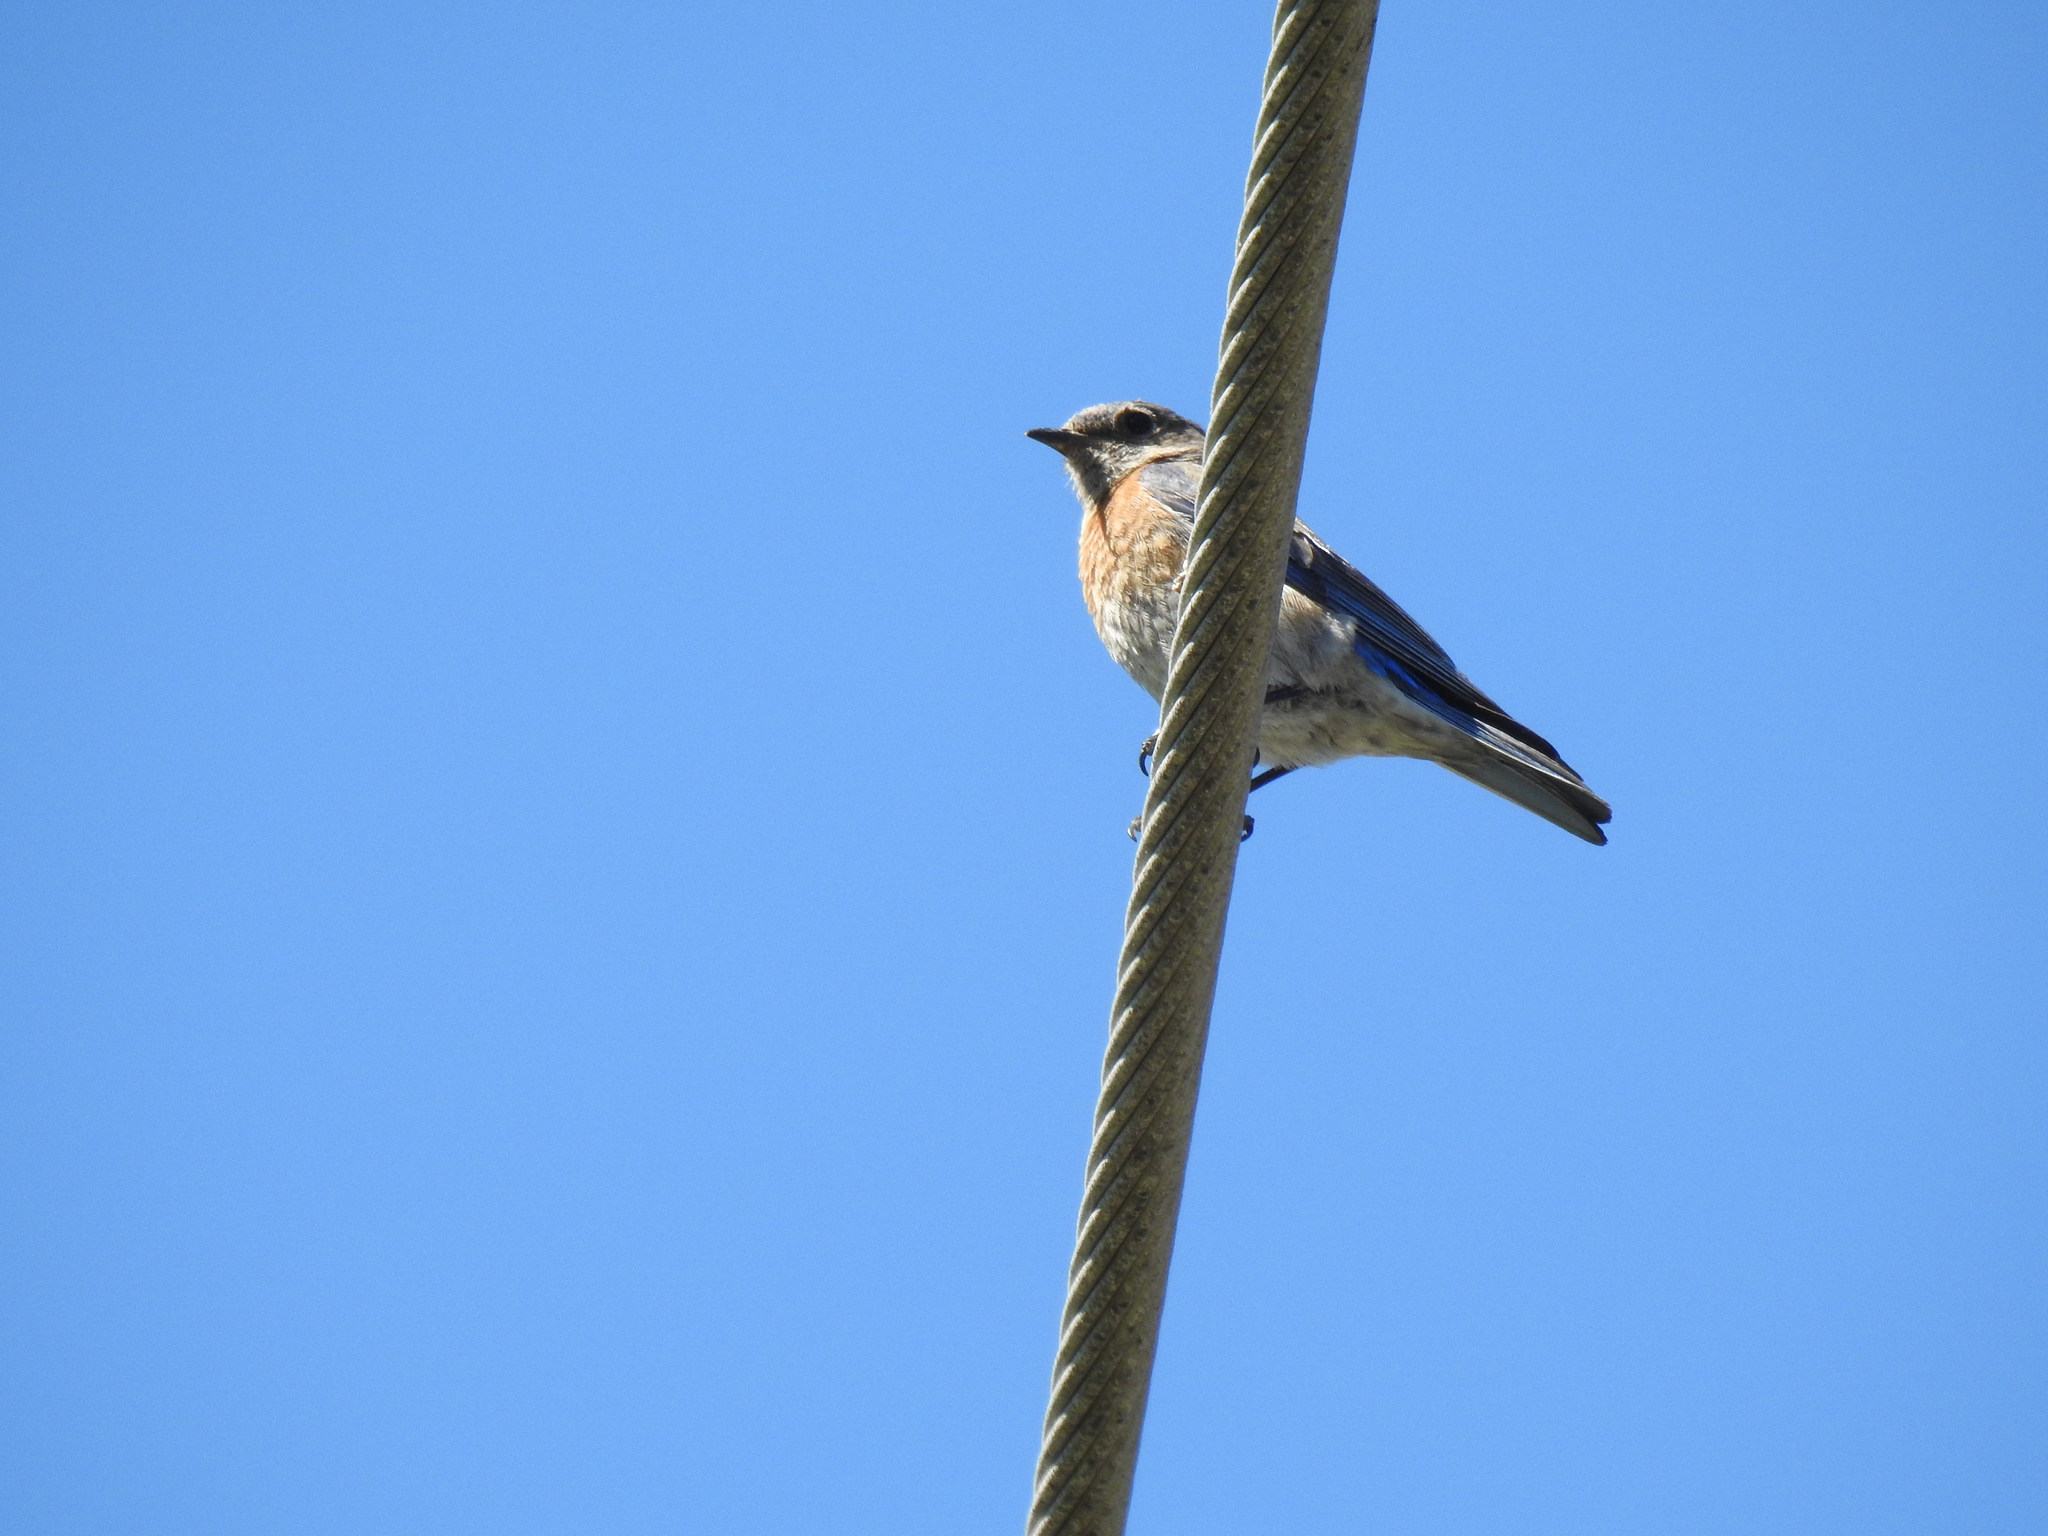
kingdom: Animalia
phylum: Chordata
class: Aves
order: Passeriformes
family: Turdidae
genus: Sialia
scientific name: Sialia mexicana
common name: Western bluebird
